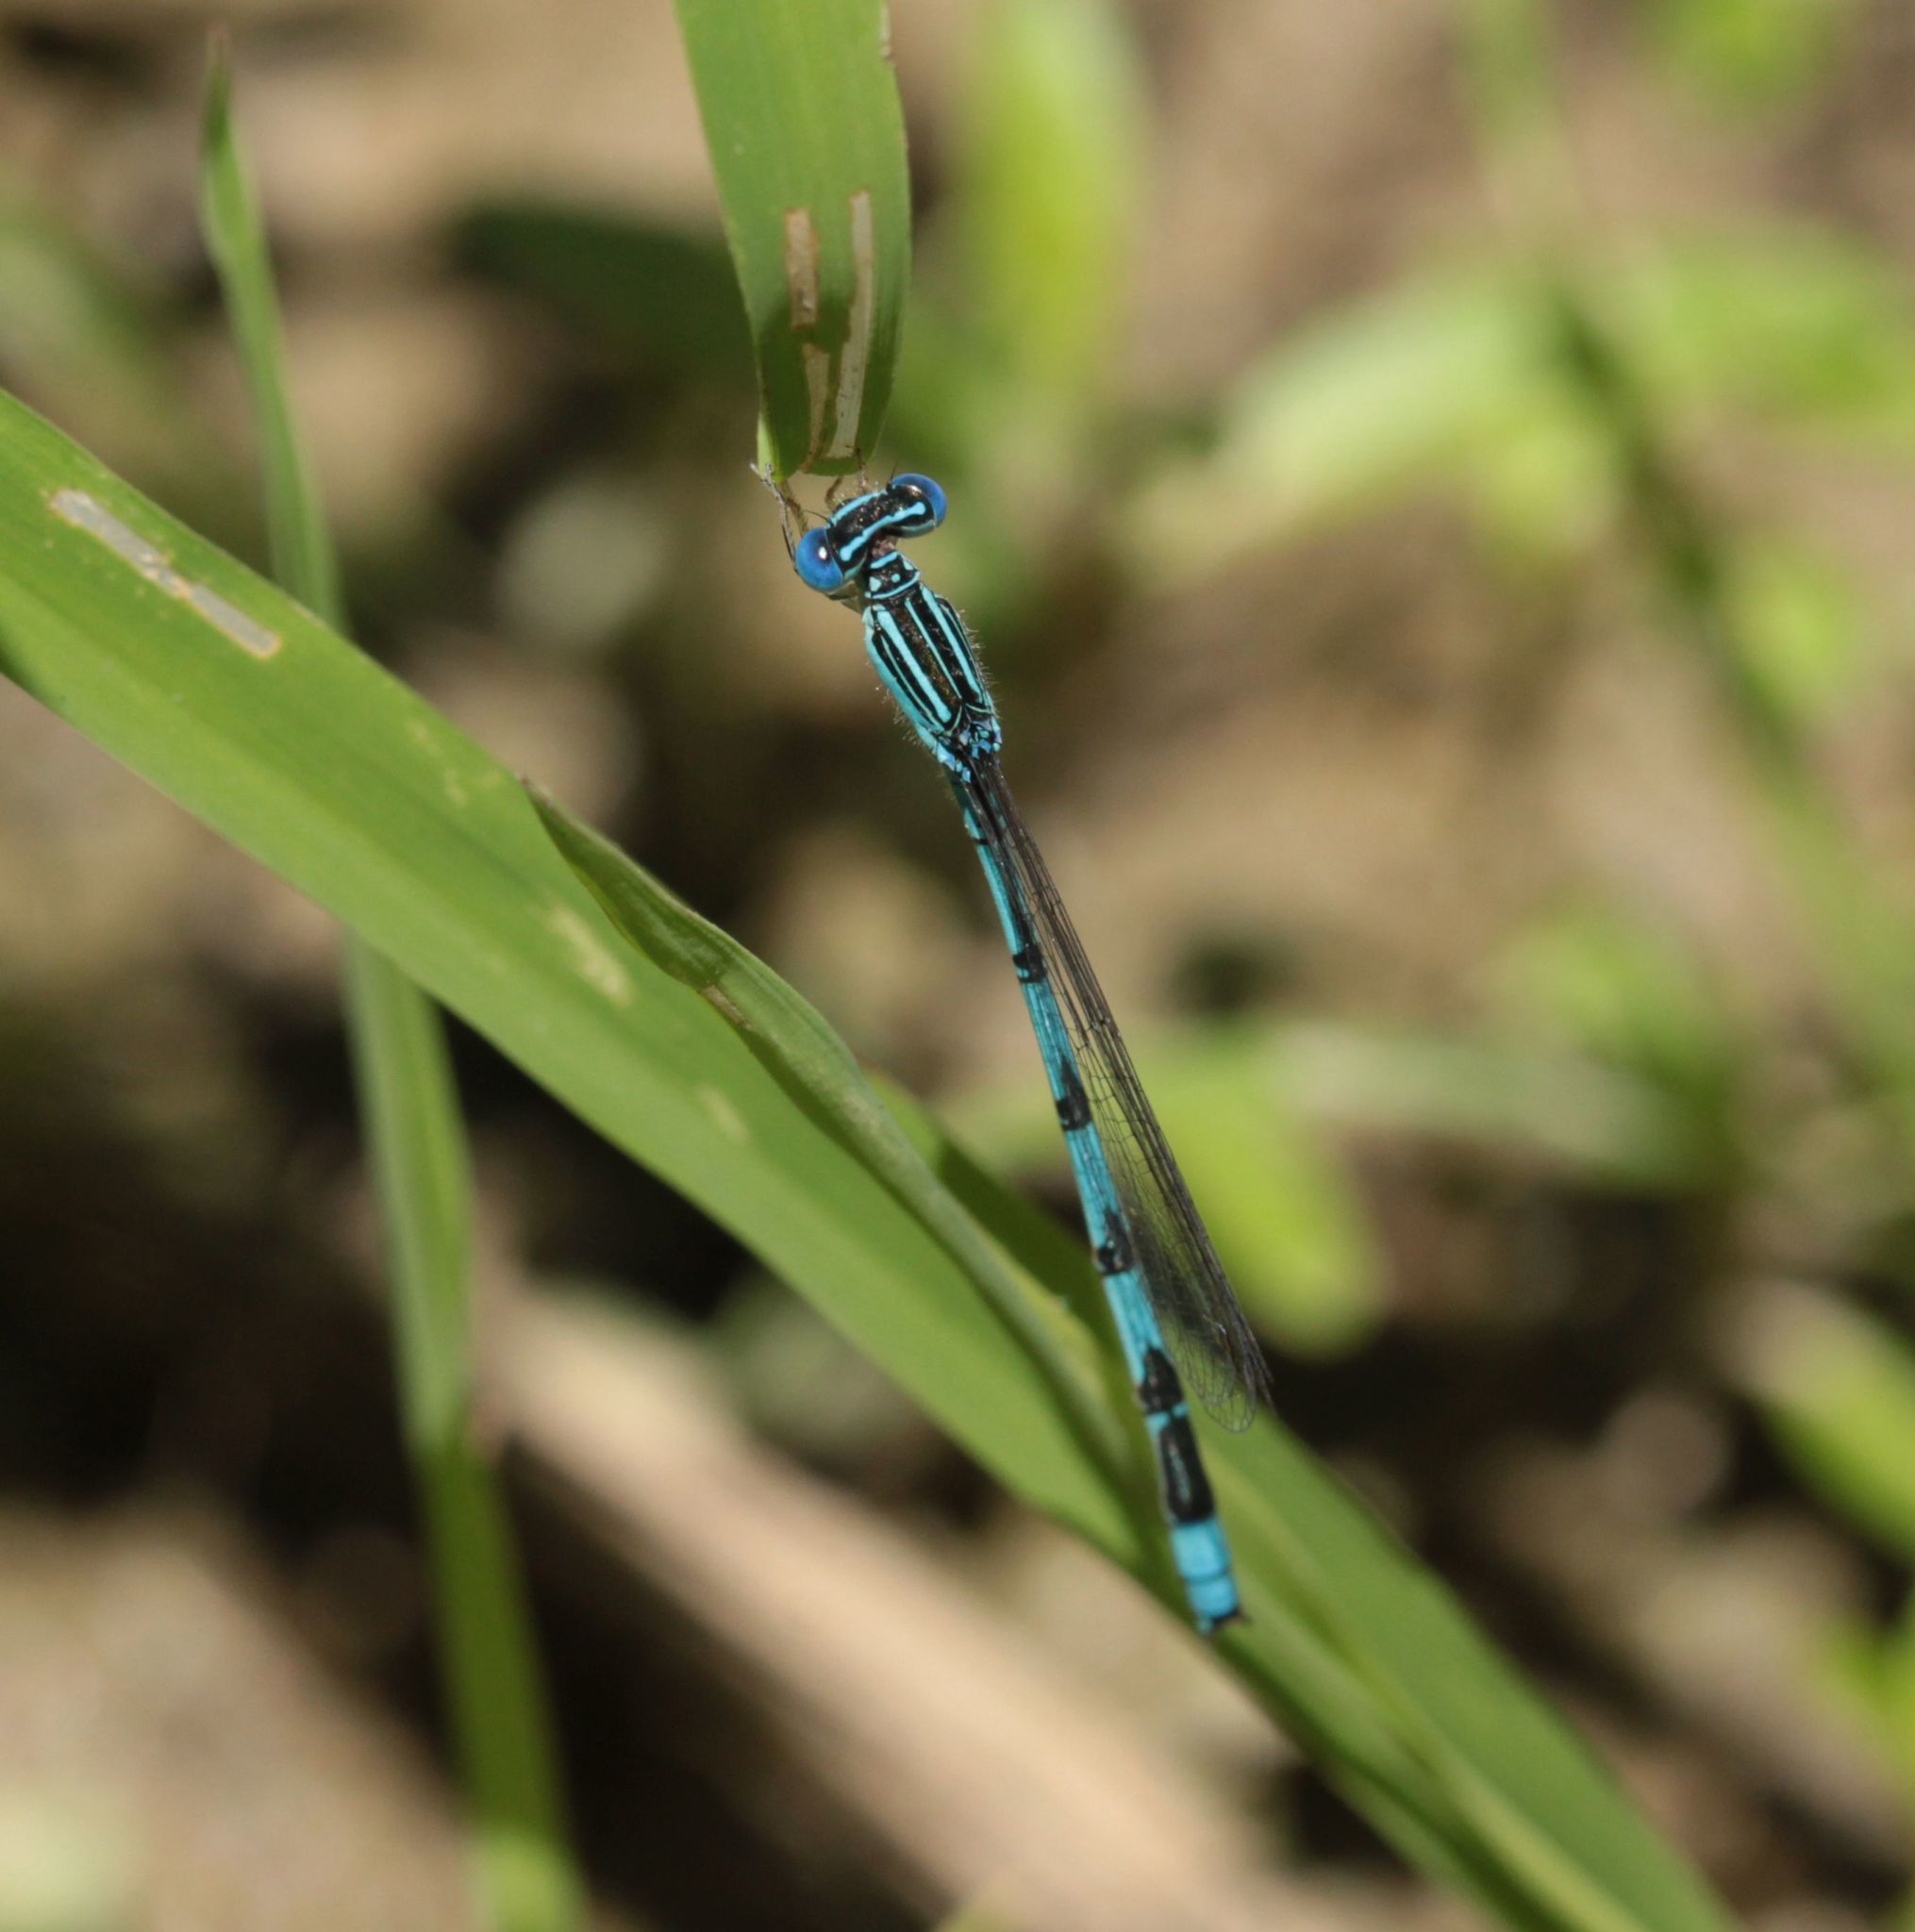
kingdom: Animalia
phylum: Arthropoda
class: Insecta
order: Odonata
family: Coenagrionidae
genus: Enallagma
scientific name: Enallagma basidens
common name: Double-striped bluet
